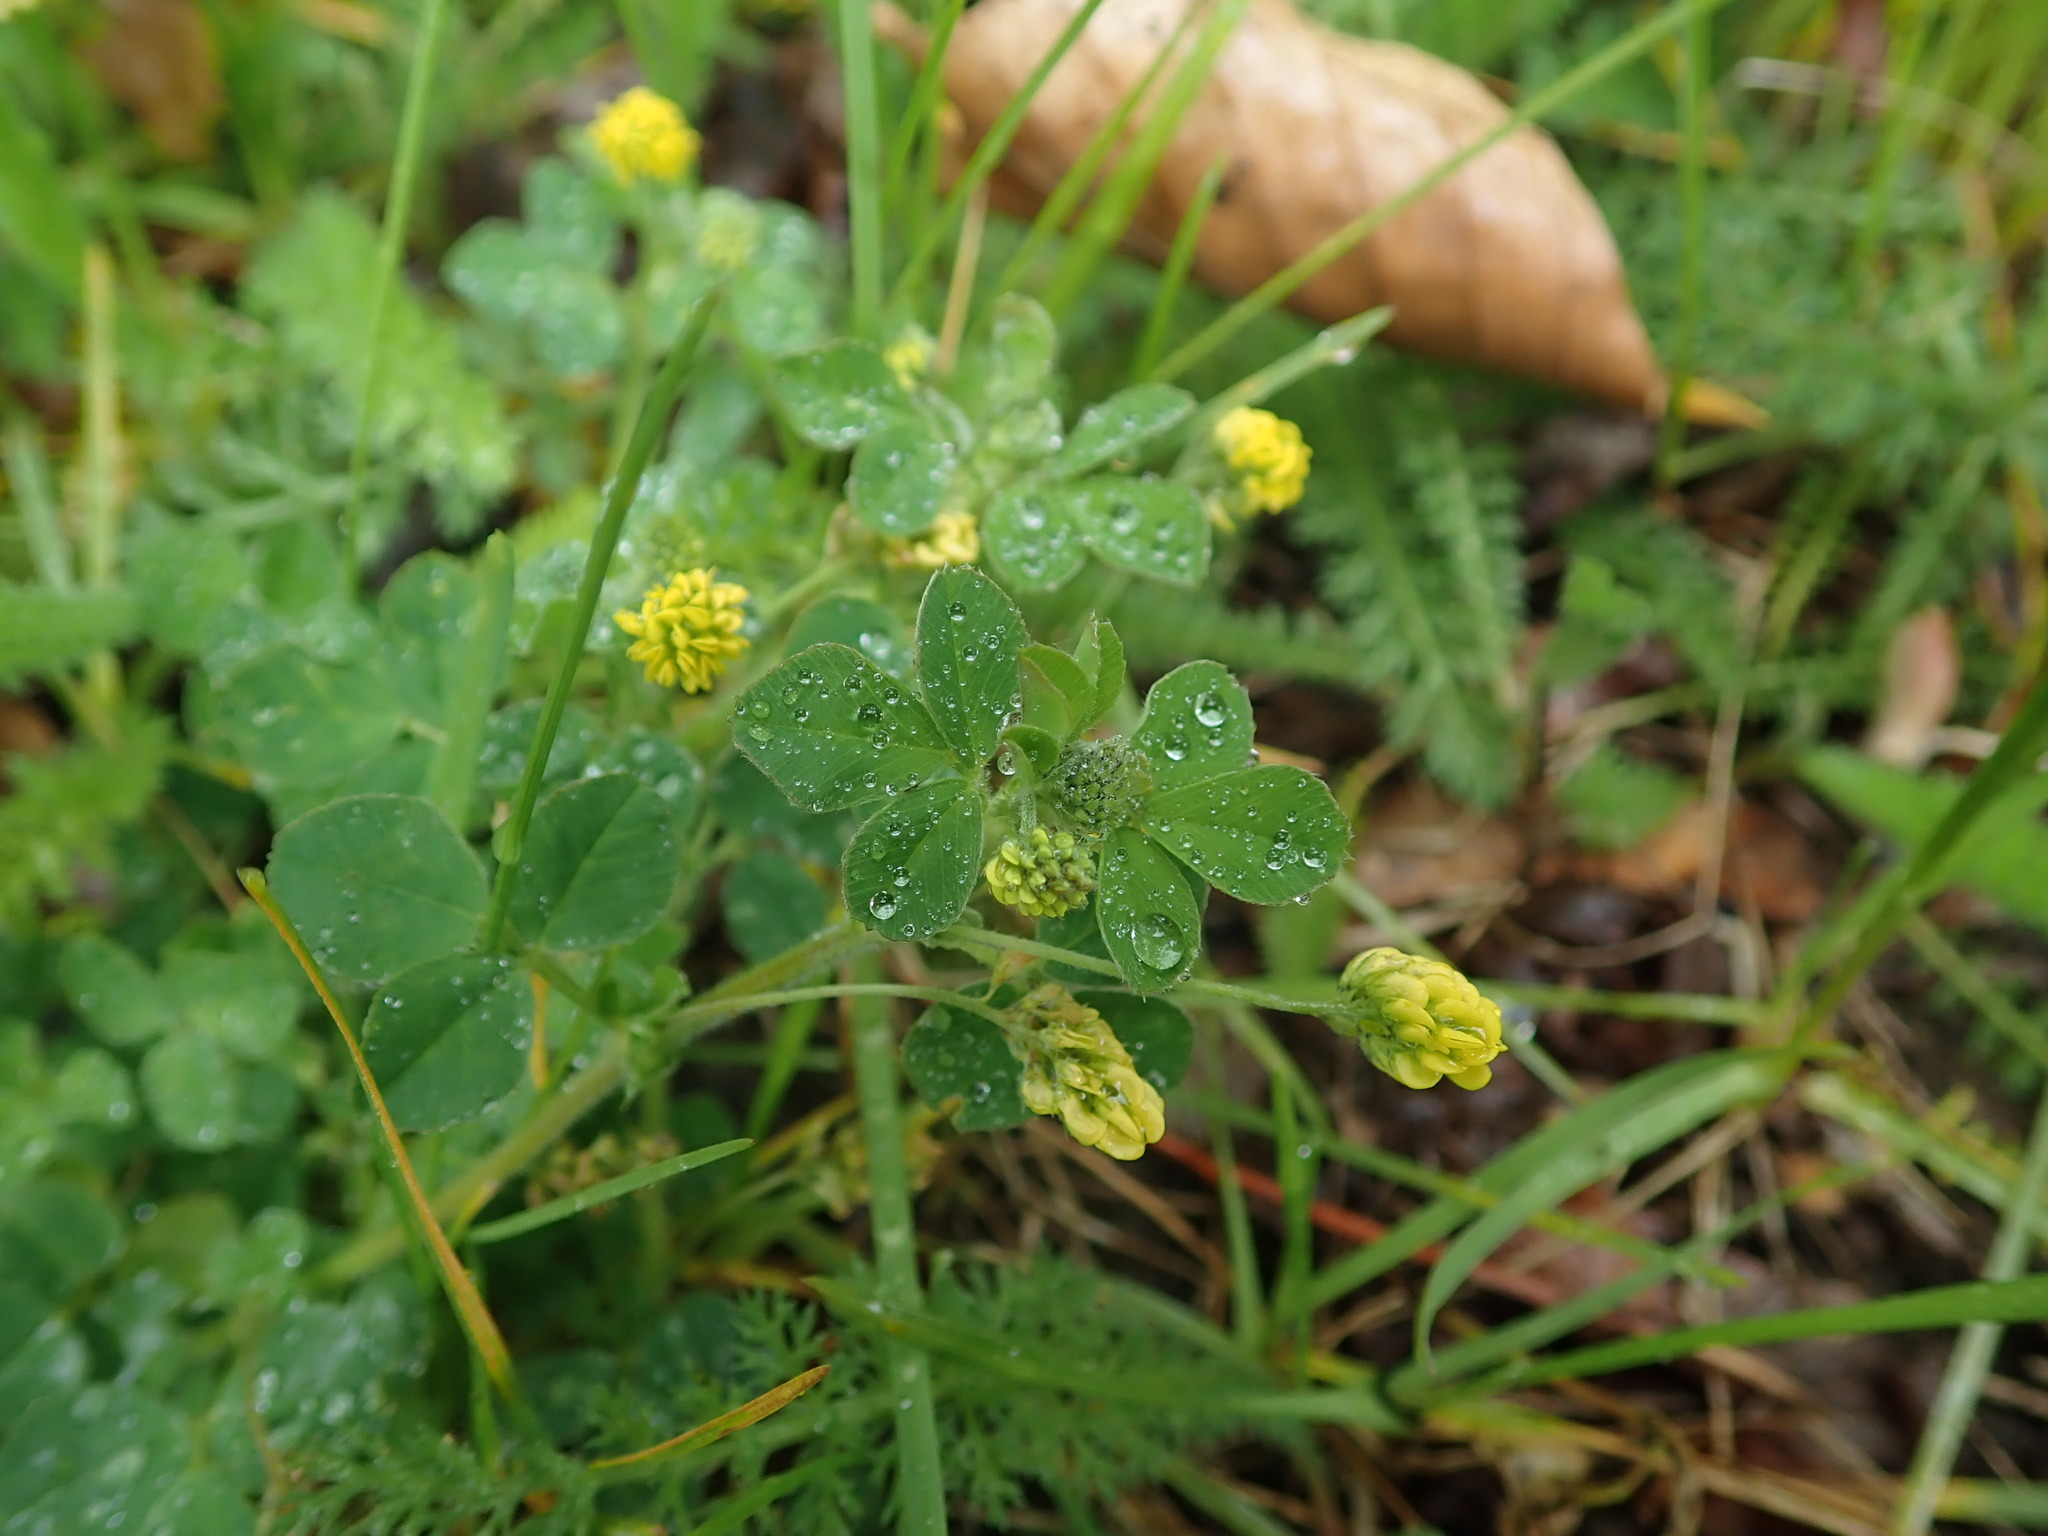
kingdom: Plantae
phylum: Tracheophyta
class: Magnoliopsida
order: Fabales
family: Fabaceae
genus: Medicago
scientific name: Medicago lupulina
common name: Black medick
